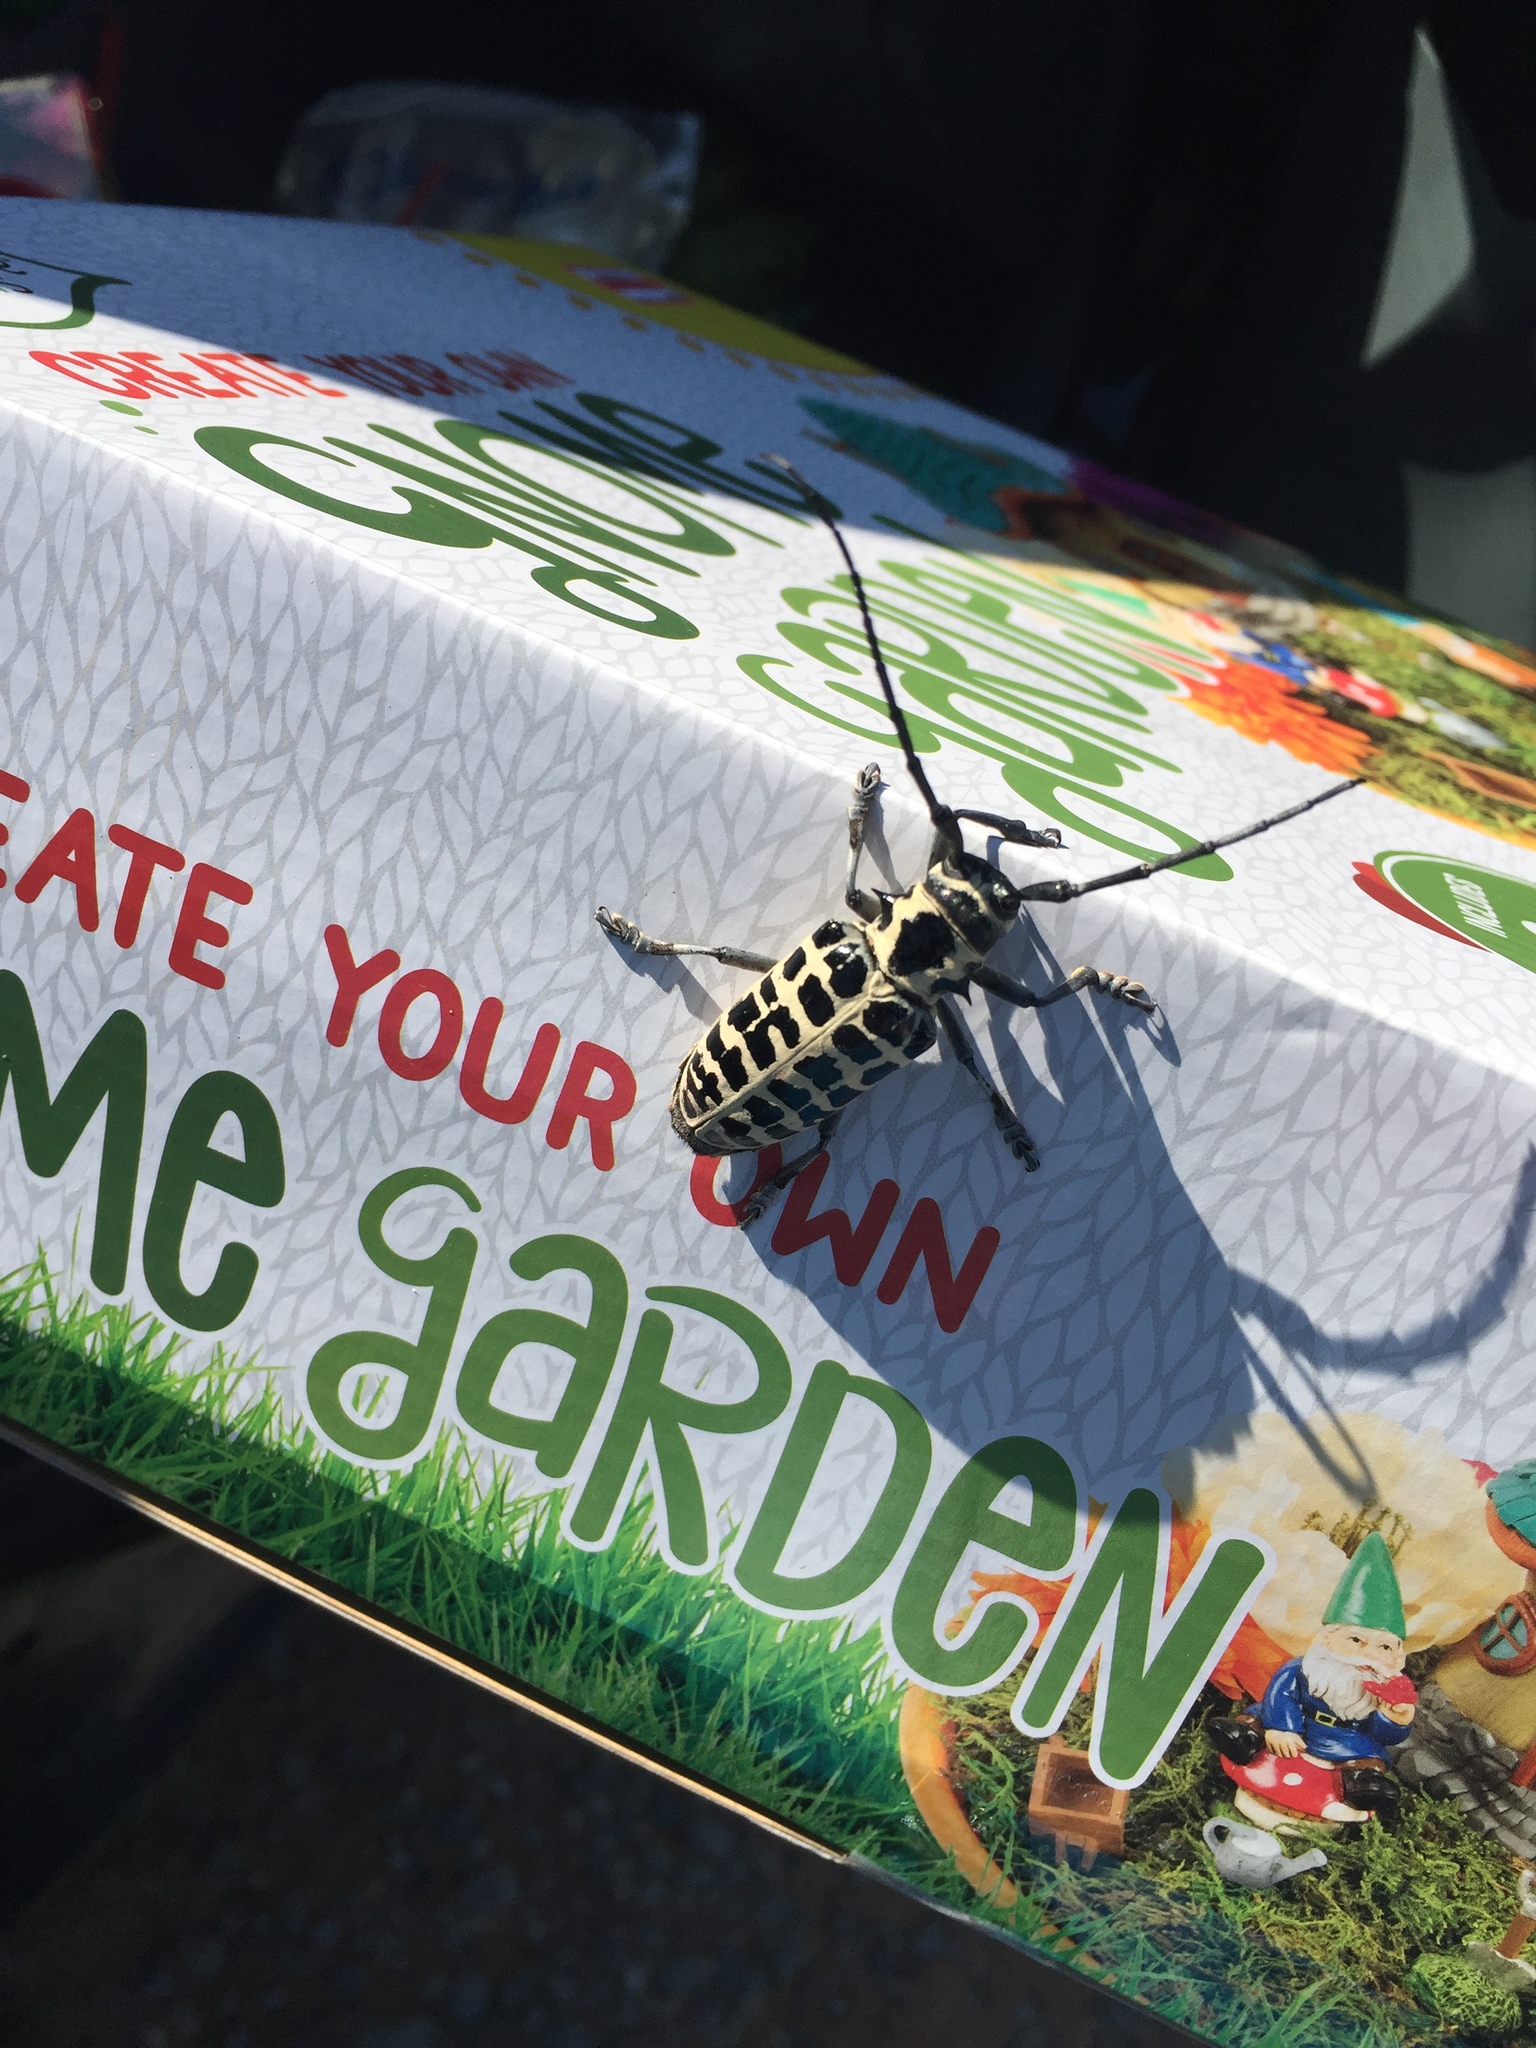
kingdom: Animalia
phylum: Arthropoda
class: Insecta
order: Coleoptera
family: Cerambycidae
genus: Plectrodera
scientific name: Plectrodera scalator
